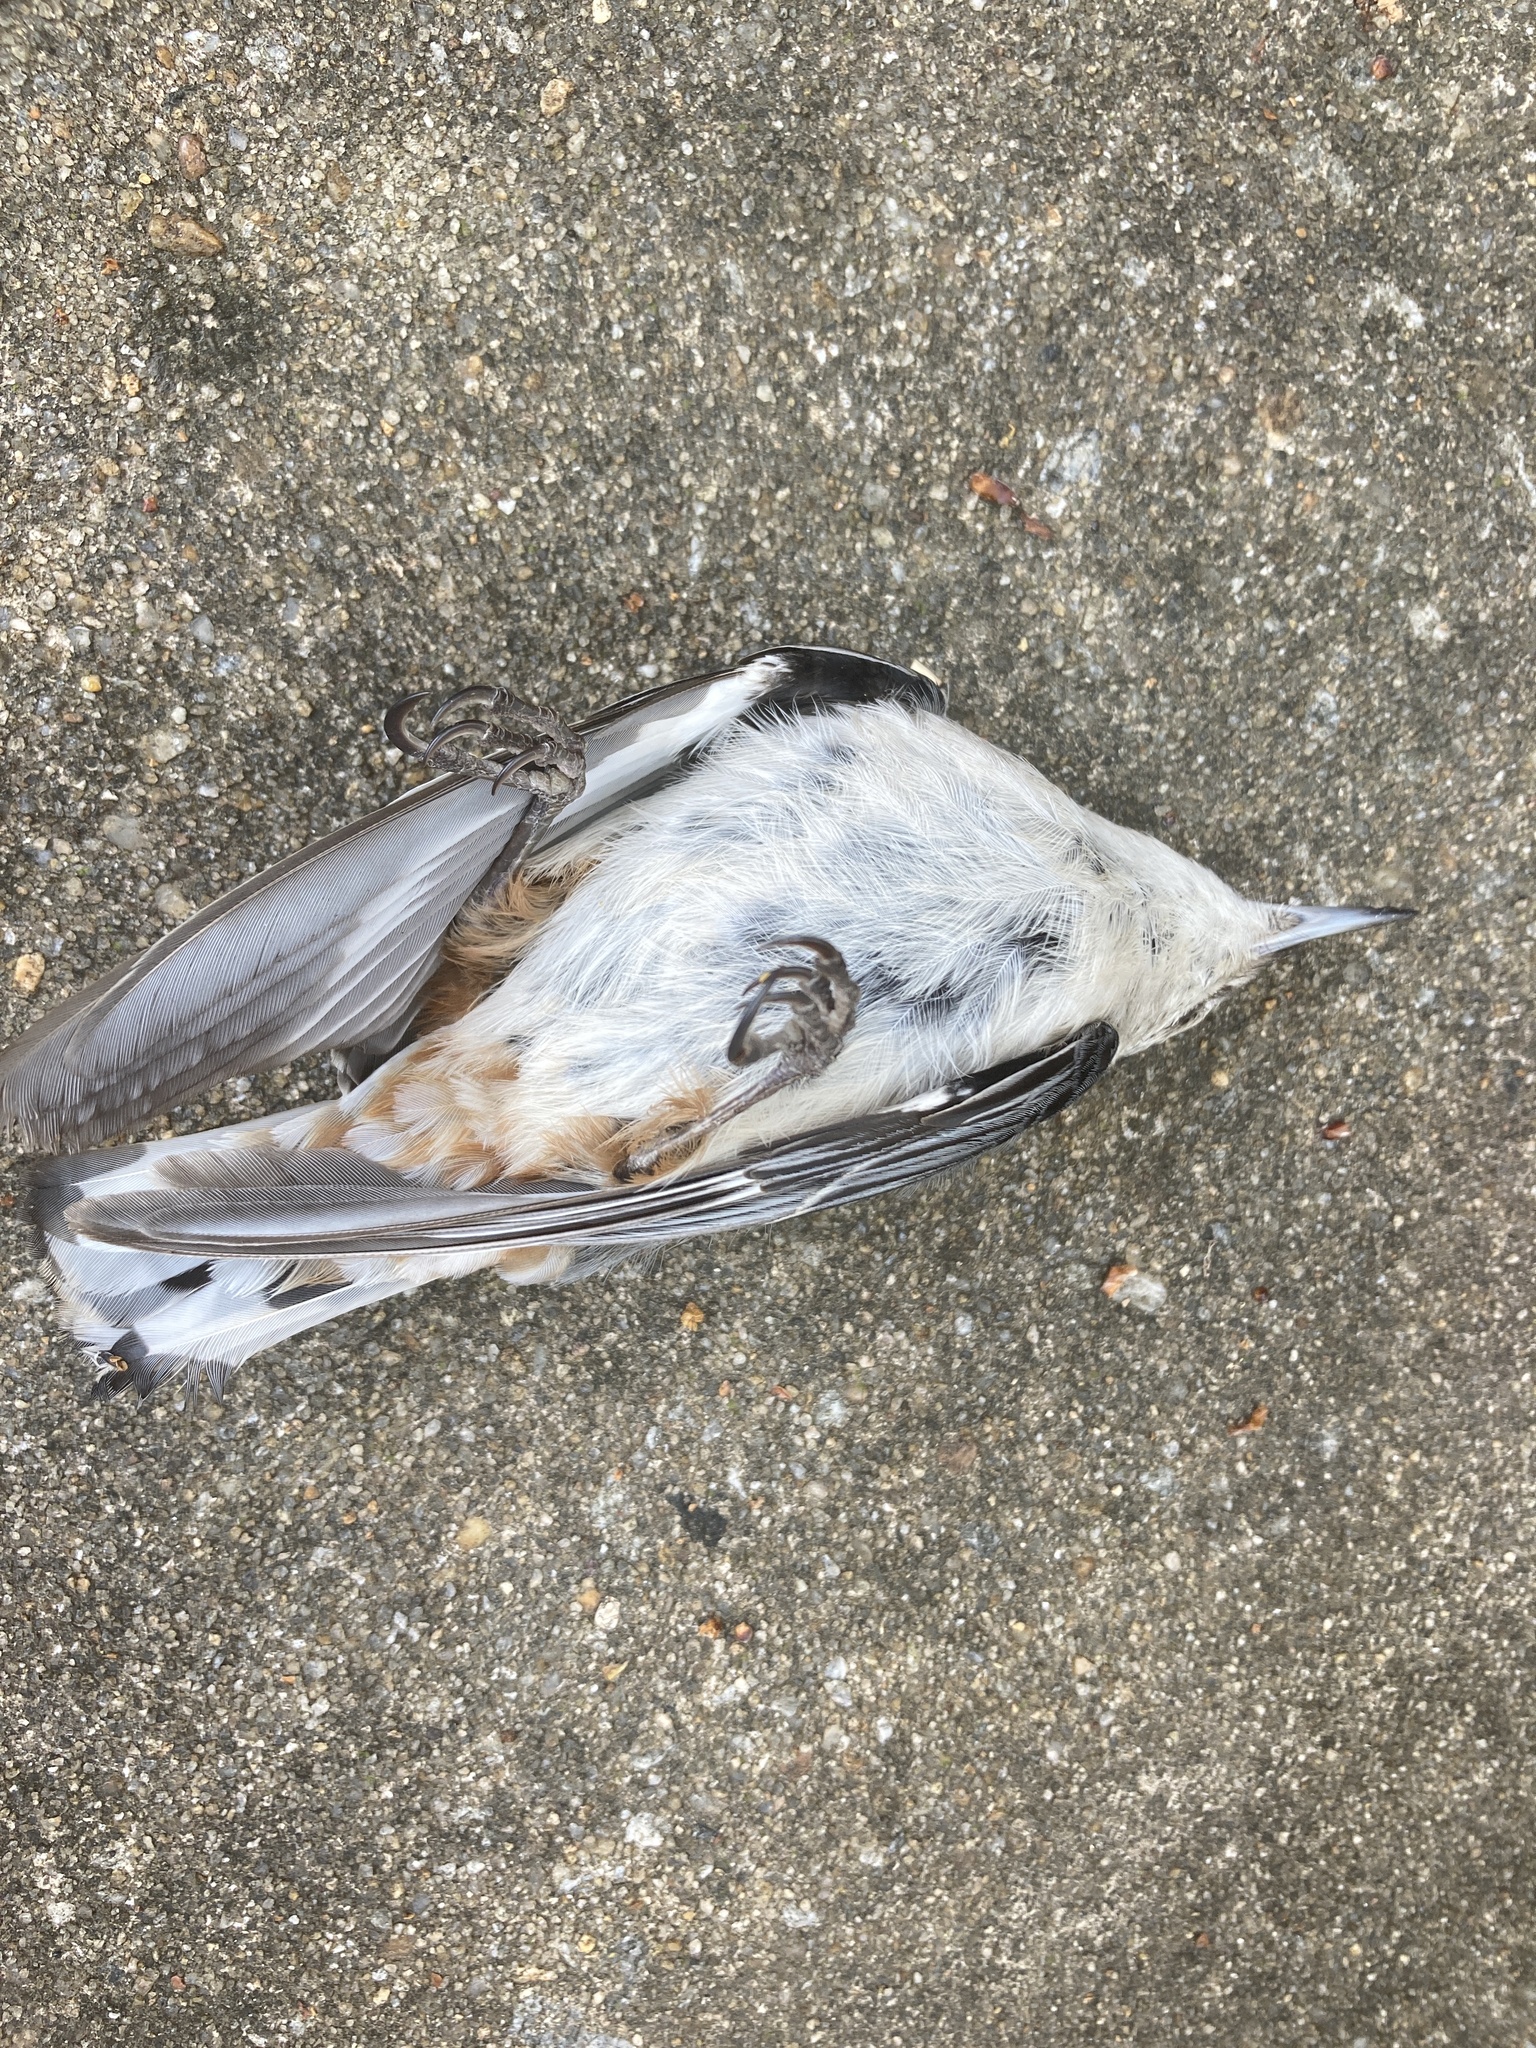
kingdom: Animalia
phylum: Chordata
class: Aves
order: Passeriformes
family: Sittidae
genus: Sitta
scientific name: Sitta carolinensis
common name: White-breasted nuthatch
